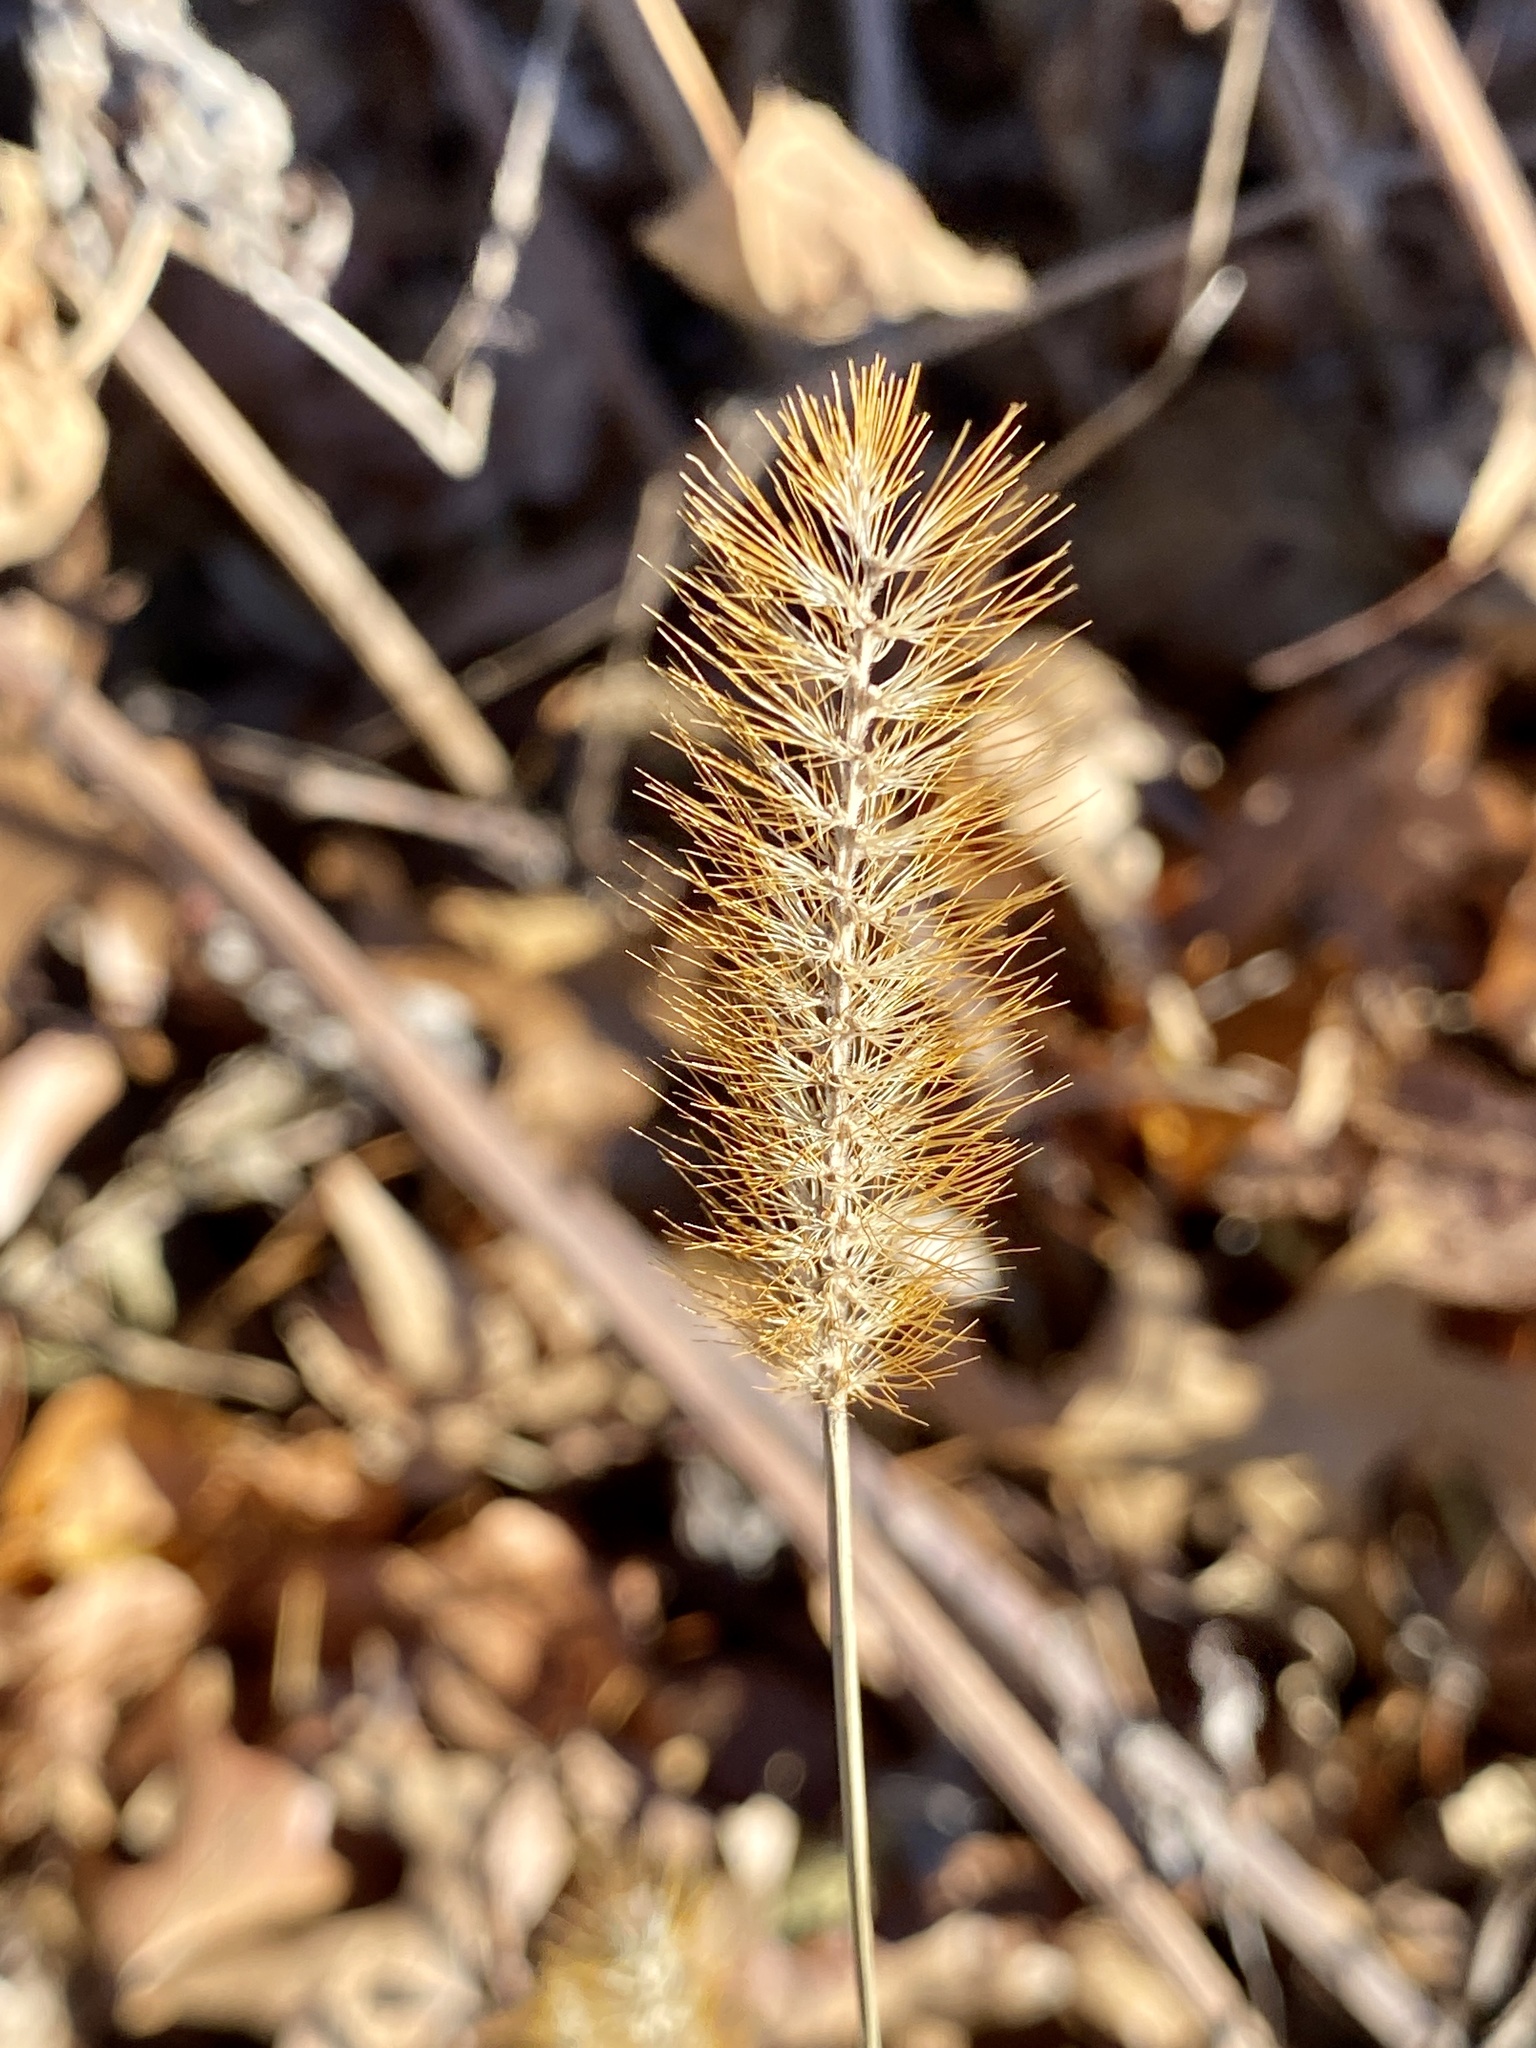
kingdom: Plantae
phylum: Tracheophyta
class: Liliopsida
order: Poales
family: Poaceae
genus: Setaria
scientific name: Setaria pumila
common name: Yellow bristle-grass
